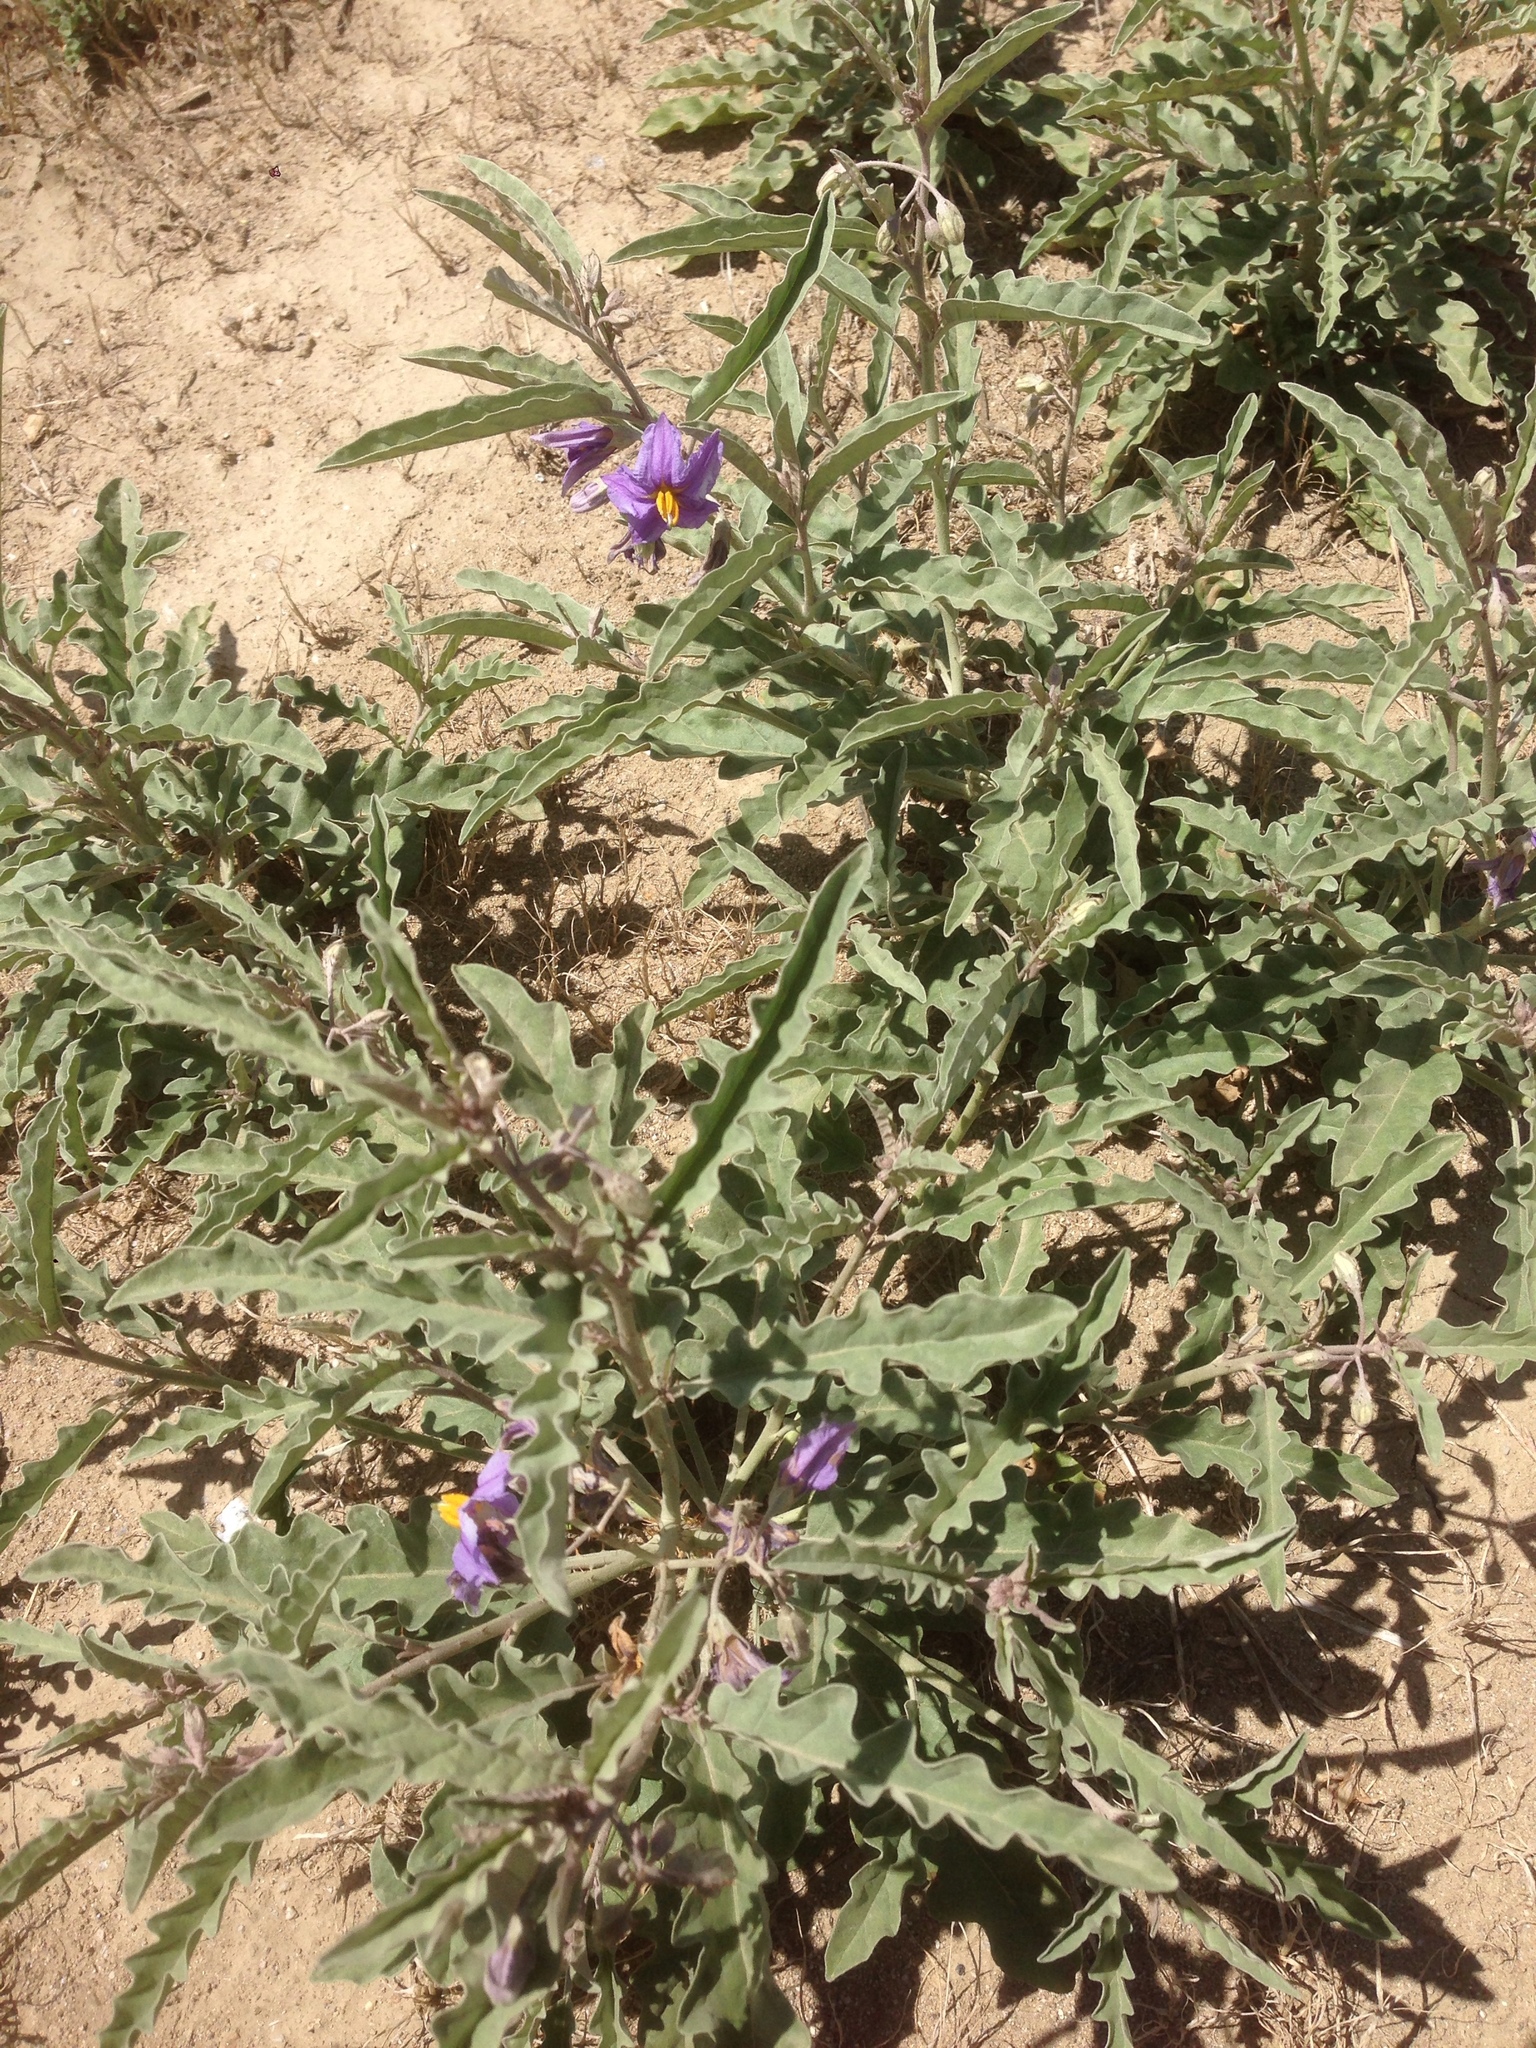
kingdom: Plantae
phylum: Tracheophyta
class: Magnoliopsida
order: Solanales
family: Solanaceae
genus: Solanum
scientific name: Solanum elaeagnifolium
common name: Silverleaf nightshade
